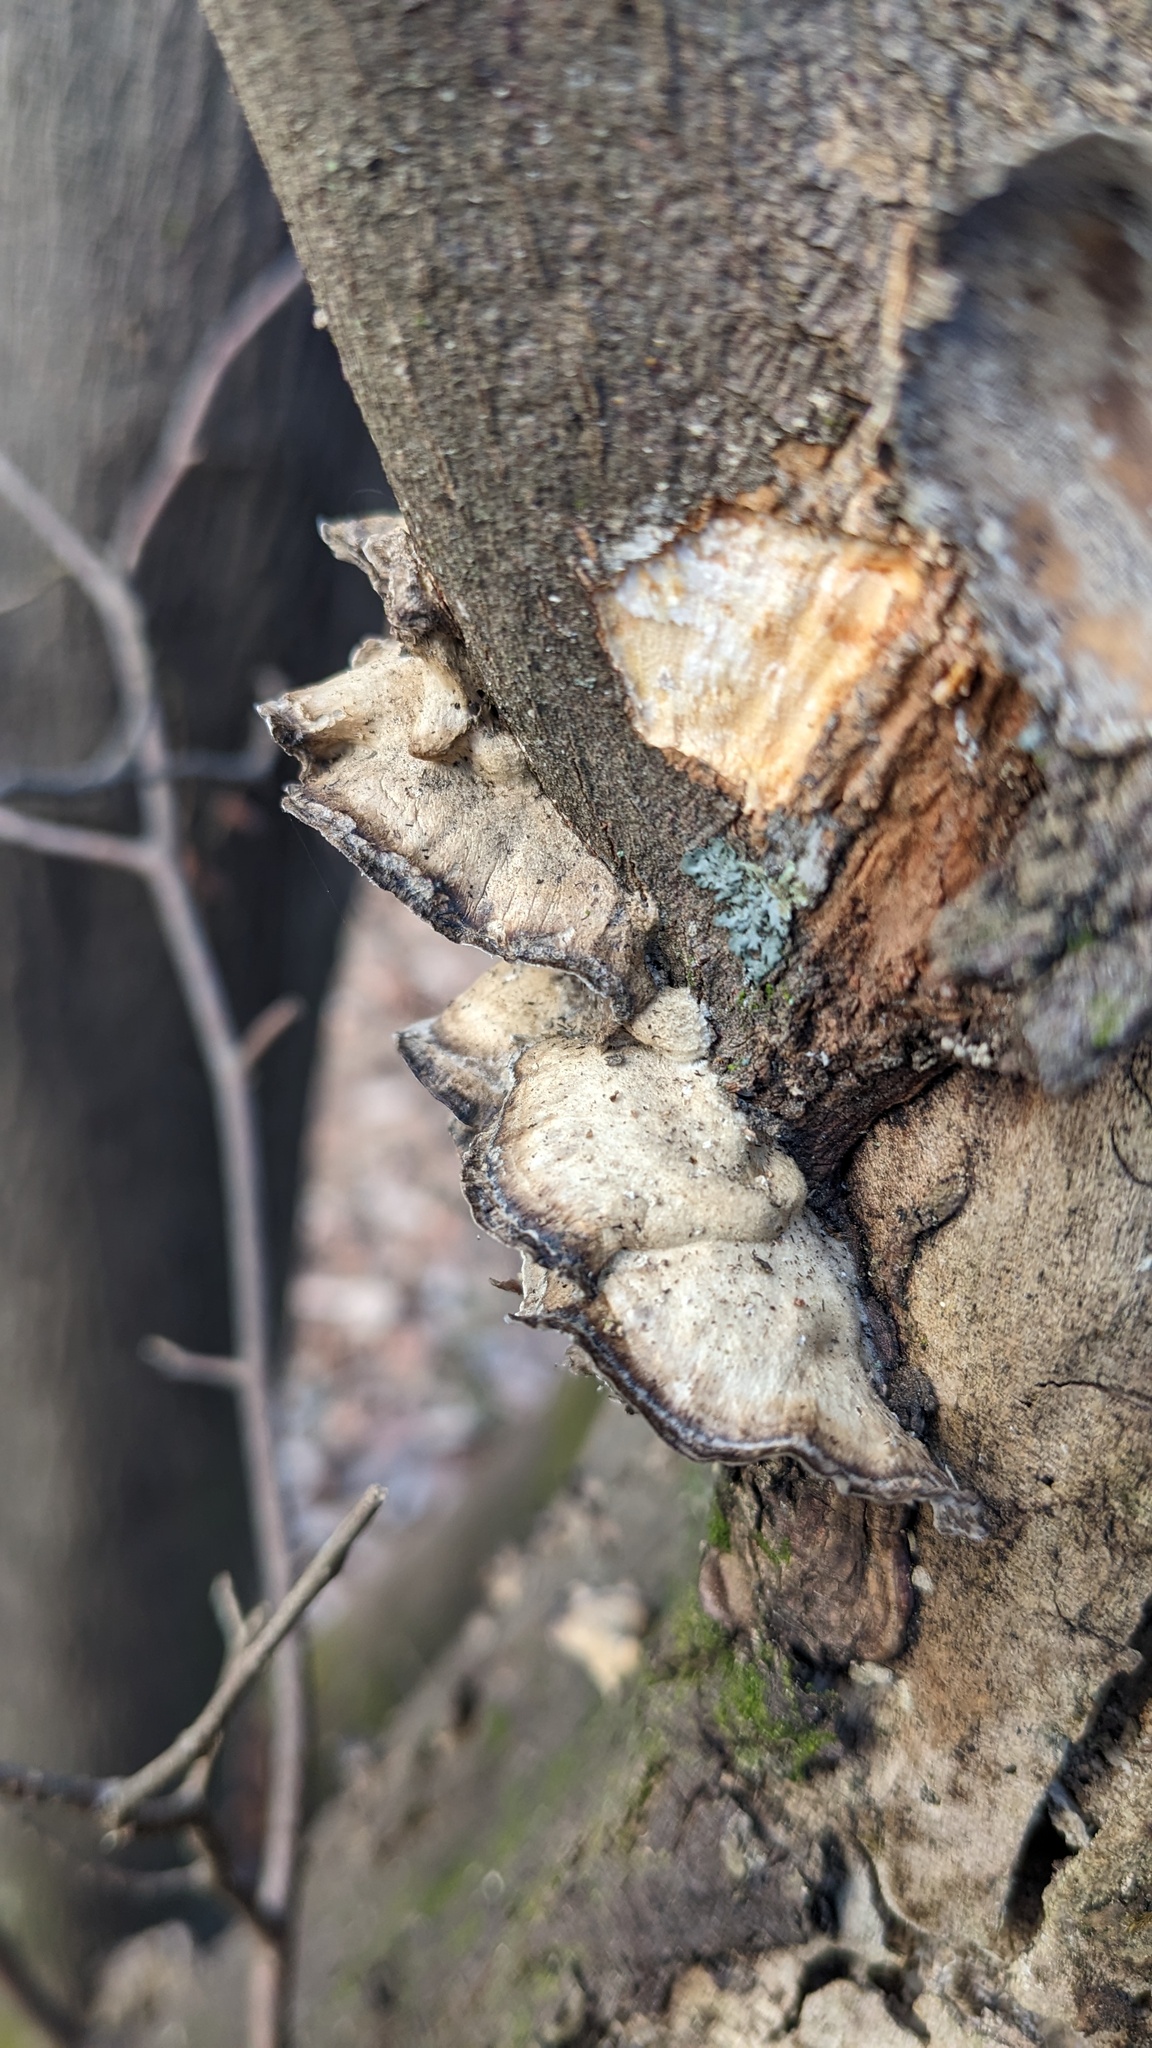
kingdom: Fungi
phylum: Basidiomycota
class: Agaricomycetes
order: Polyporales
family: Phanerochaetaceae
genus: Bjerkandera
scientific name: Bjerkandera adusta
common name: Smoky bracket
